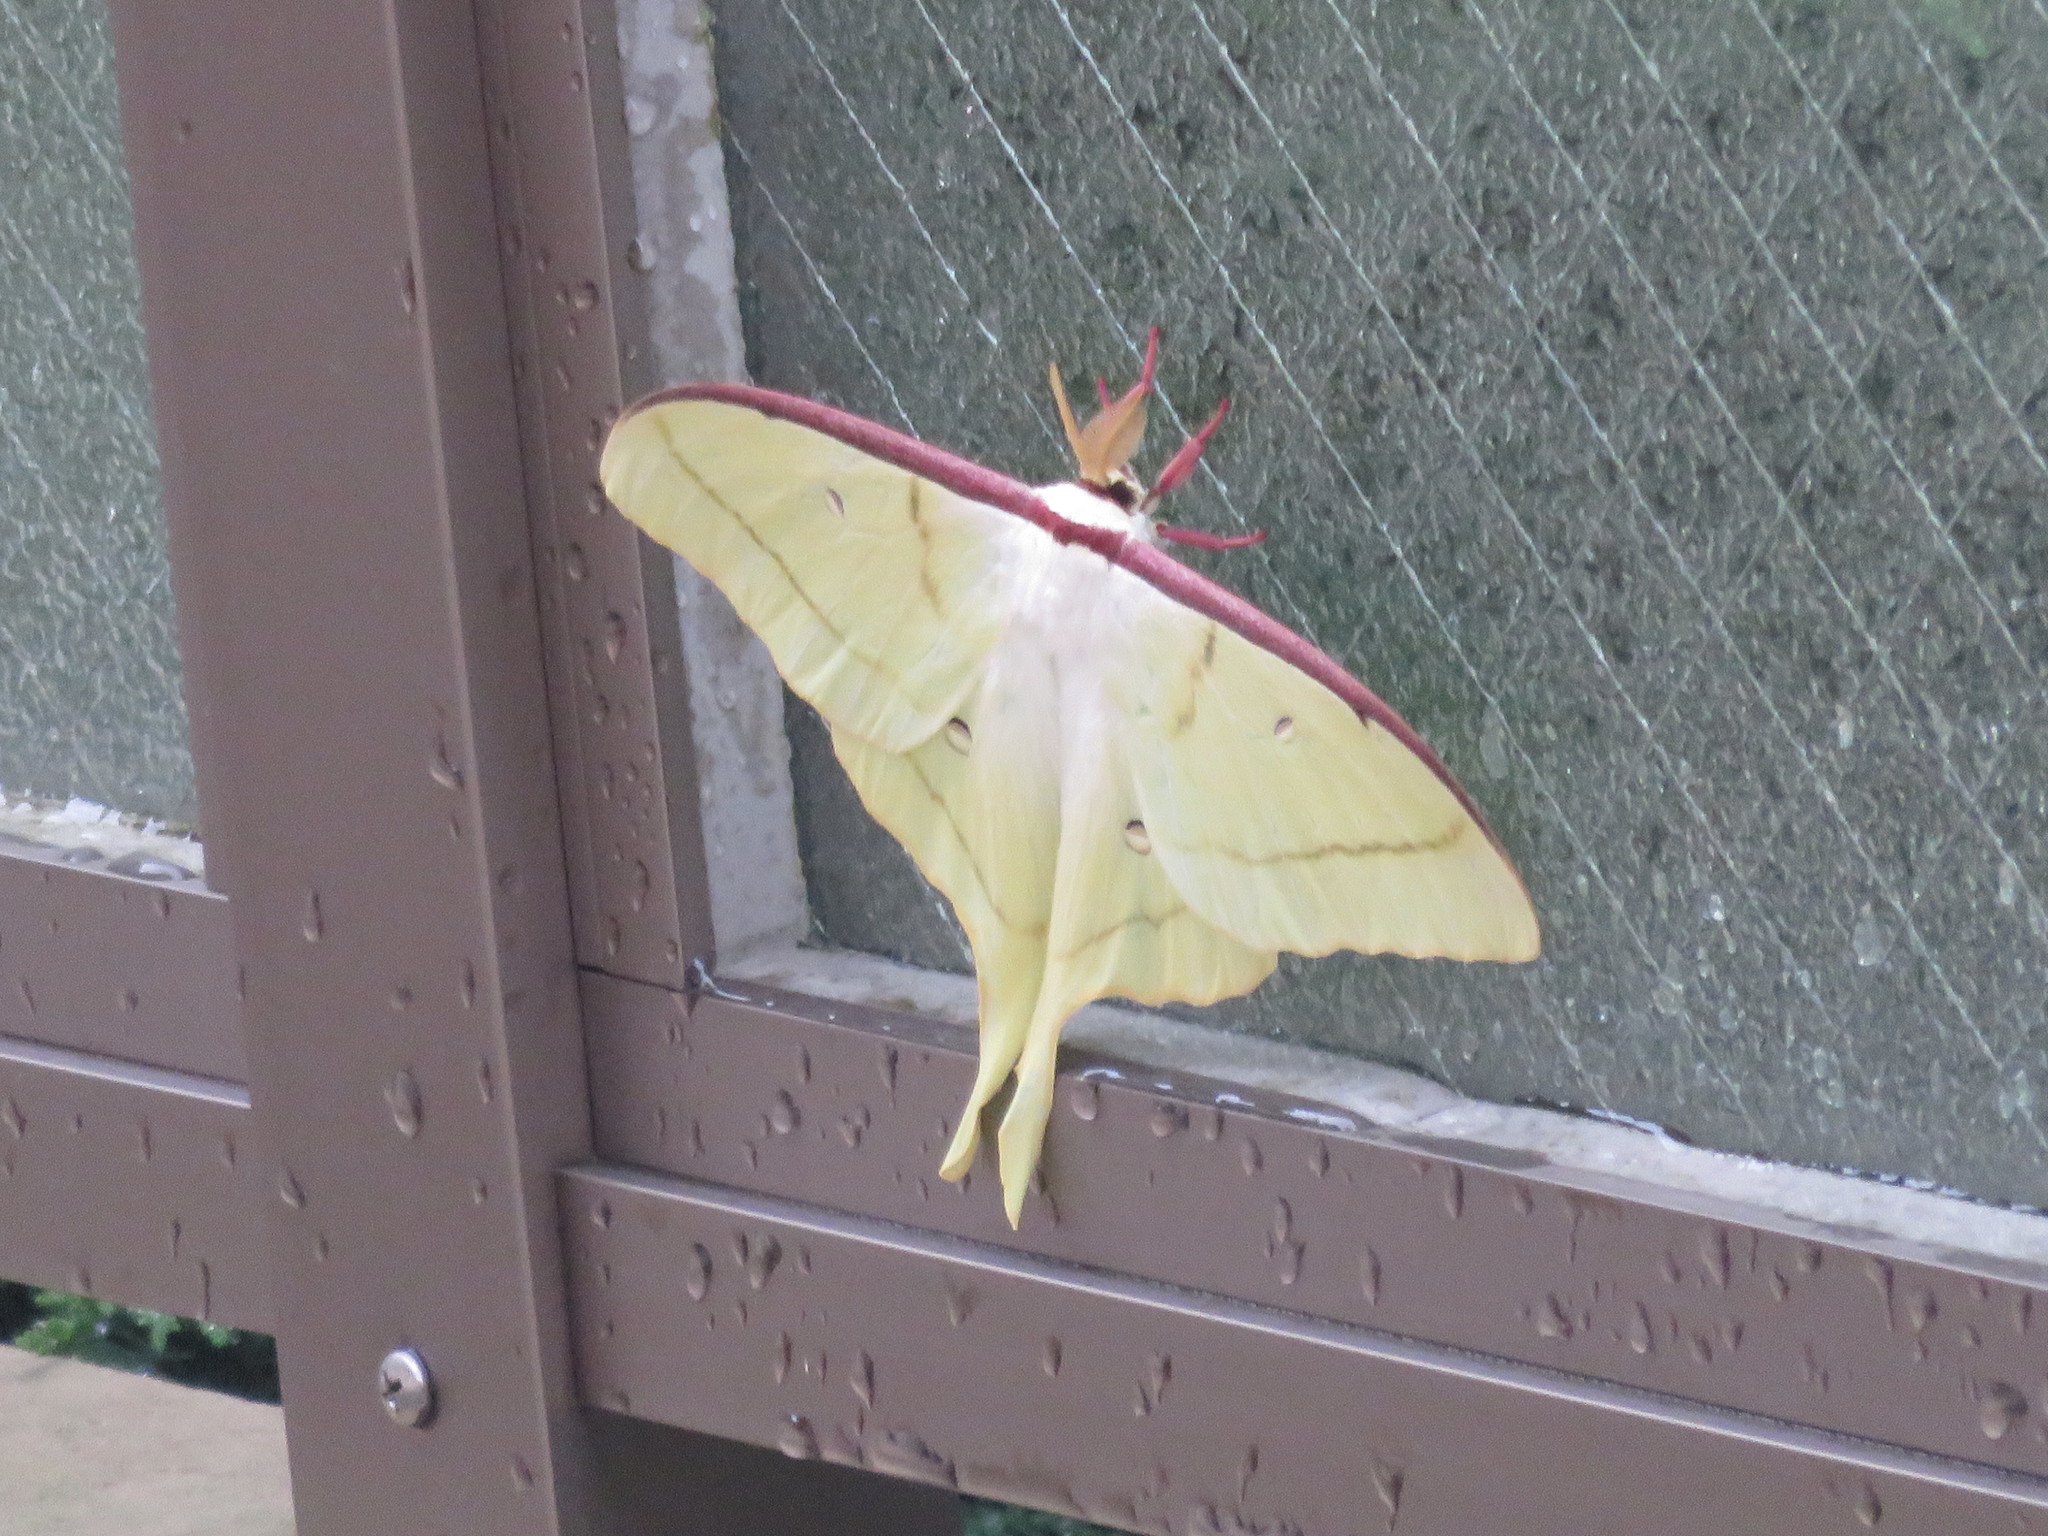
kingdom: Animalia
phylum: Arthropoda
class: Insecta
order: Lepidoptera
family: Saturniidae
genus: Actias
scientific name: Actias gnoma
